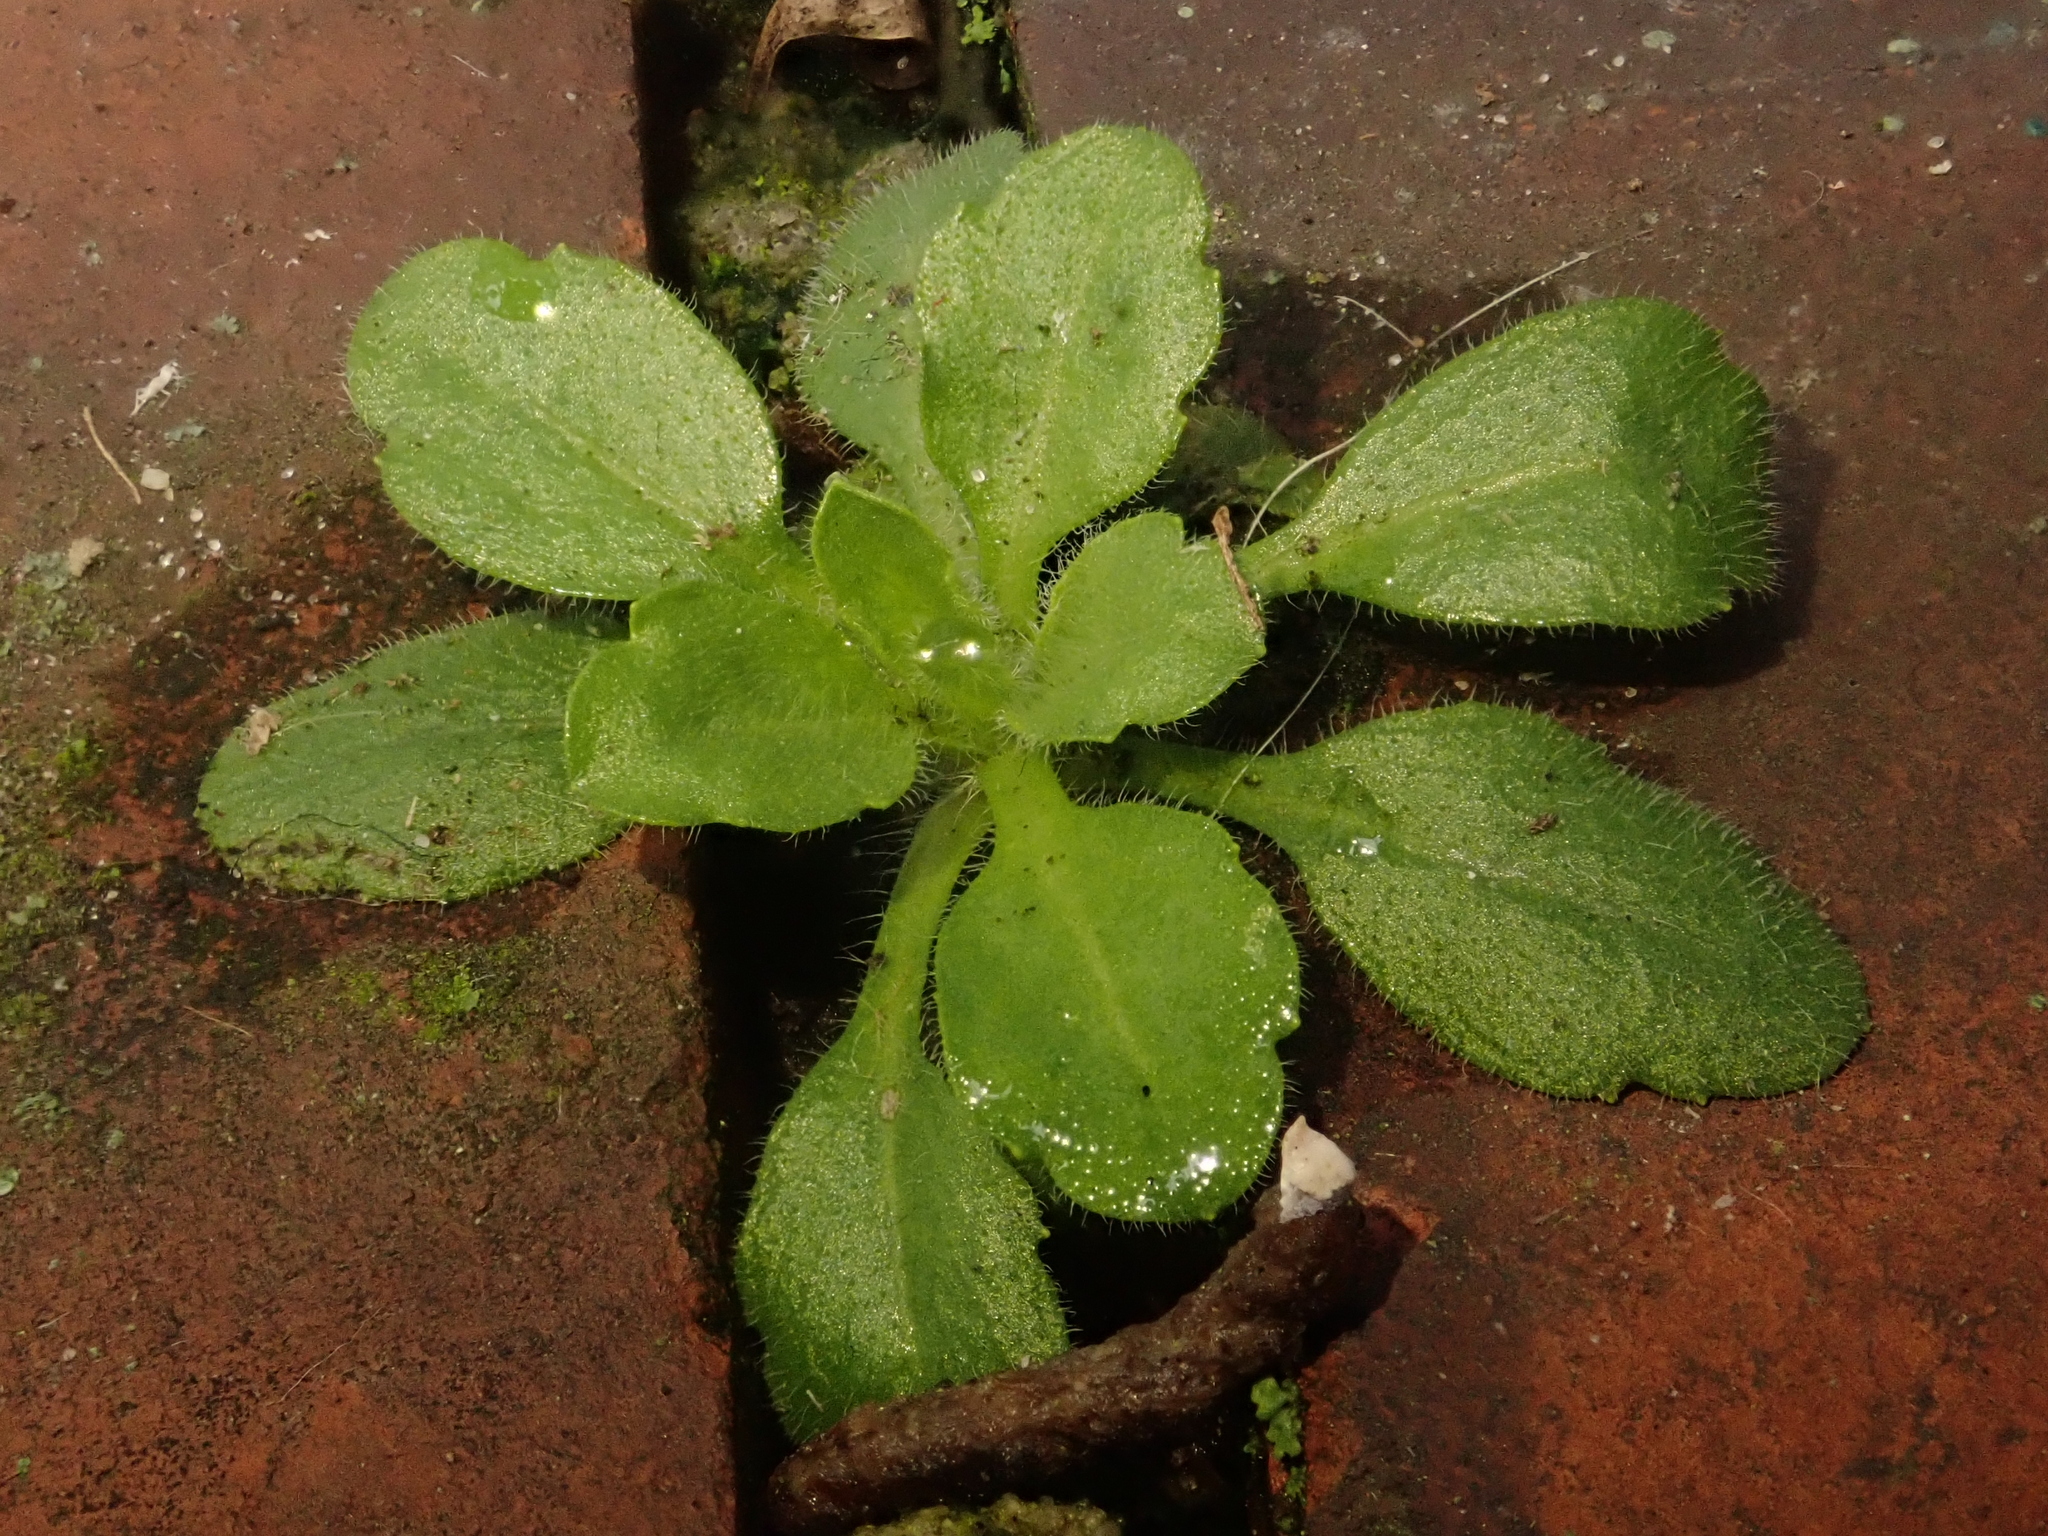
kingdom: Plantae
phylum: Tracheophyta
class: Magnoliopsida
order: Brassicales
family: Brassicaceae
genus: Arabidopsis
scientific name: Arabidopsis thaliana
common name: Thale cress
